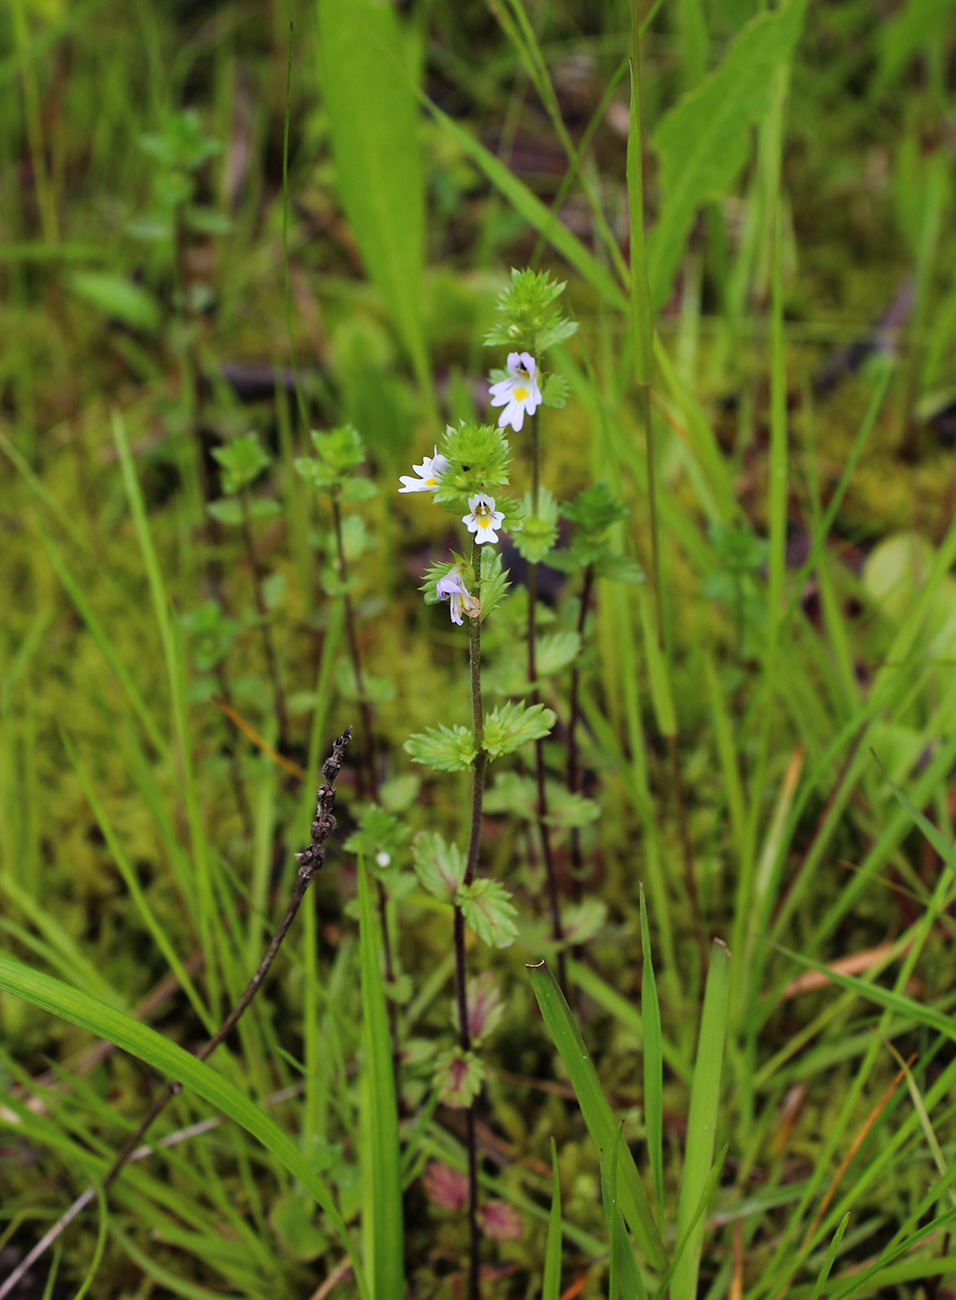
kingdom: Plantae
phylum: Tracheophyta
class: Magnoliopsida
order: Lamiales
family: Orobanchaceae
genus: Euphrasia
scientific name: Euphrasia vernalis
